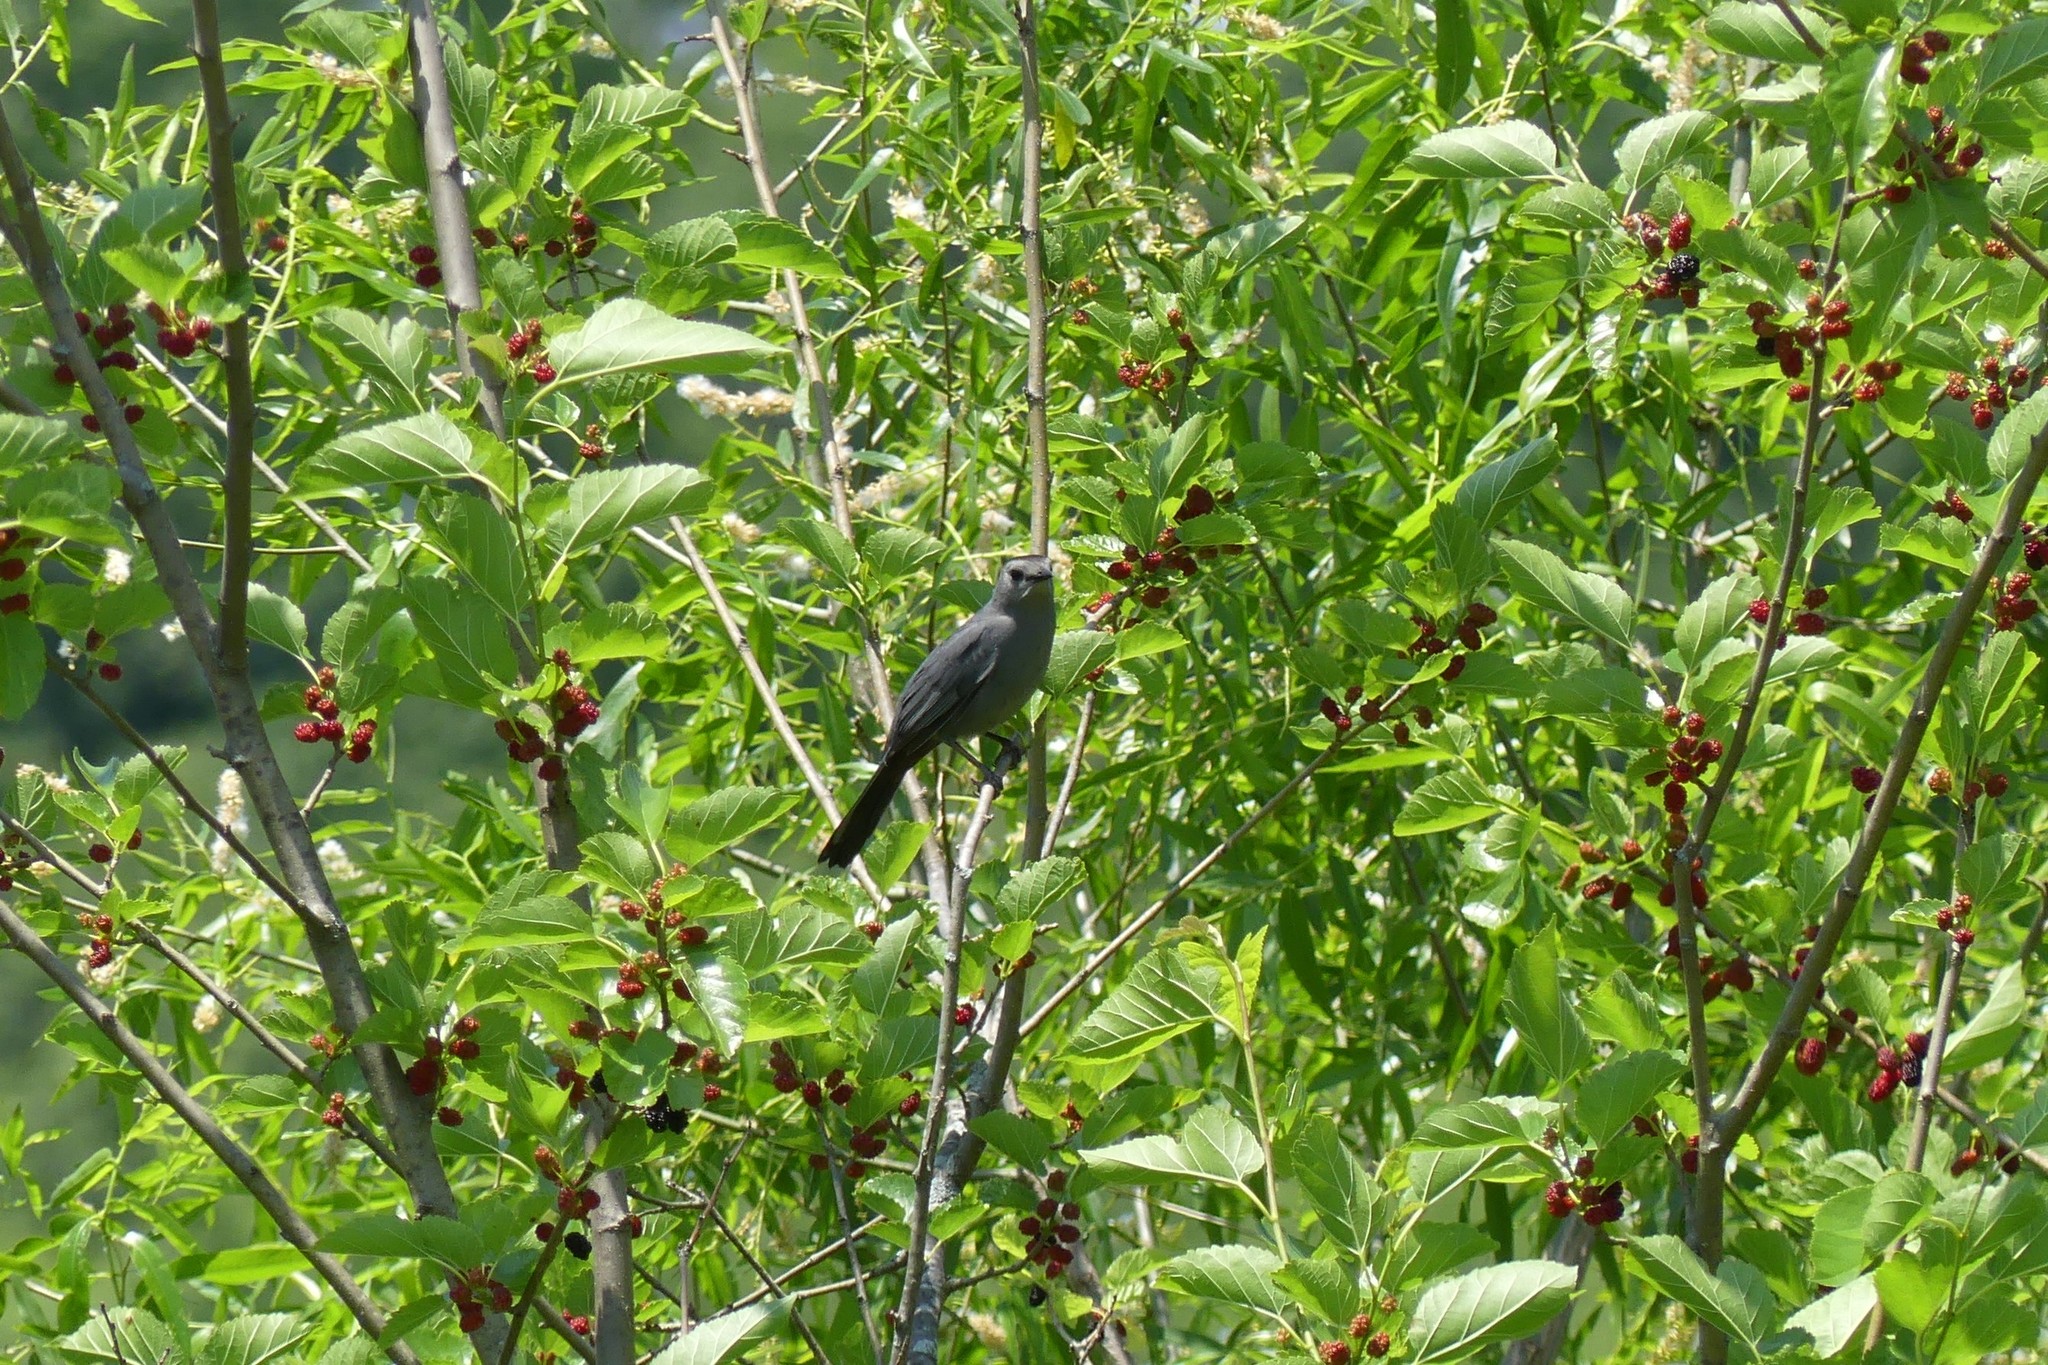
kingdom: Animalia
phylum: Chordata
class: Aves
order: Passeriformes
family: Mimidae
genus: Dumetella
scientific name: Dumetella carolinensis
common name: Gray catbird
